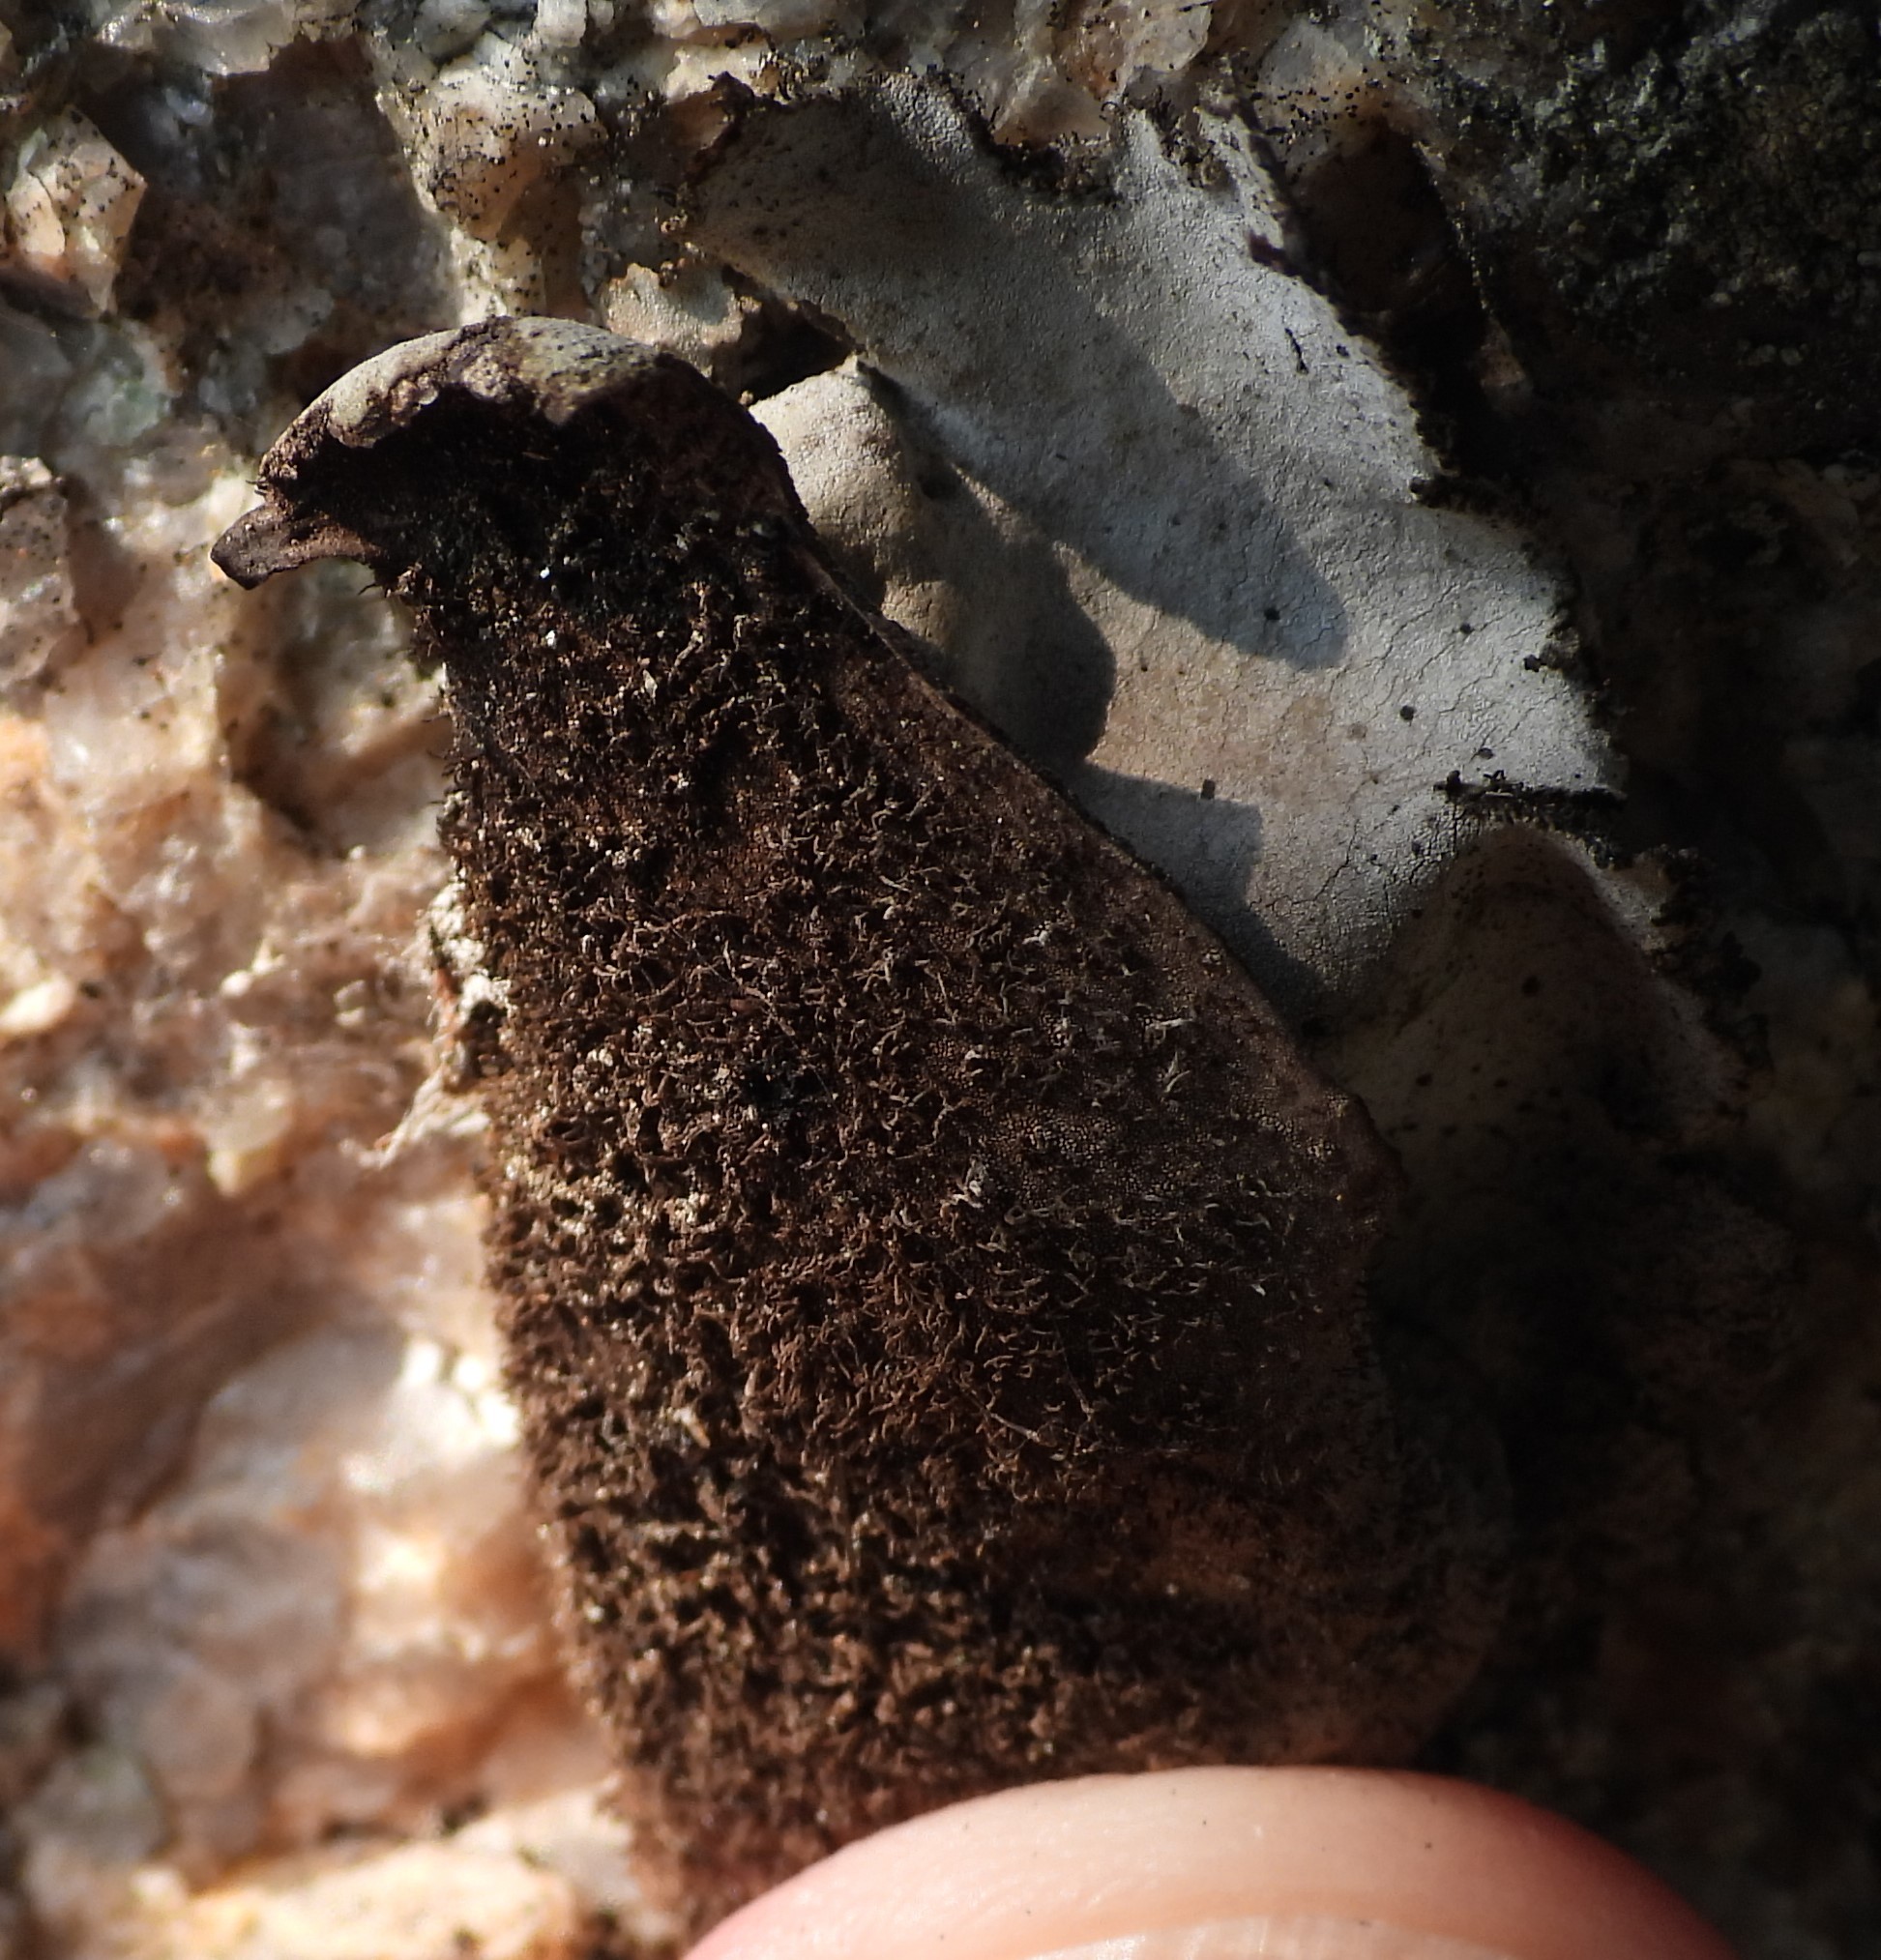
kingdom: Fungi
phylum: Ascomycota
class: Lecanoromycetes
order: Umbilicariales
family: Umbilicariaceae
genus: Umbilicaria
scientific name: Umbilicaria hirsuta
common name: Granulating rocktripe lichen
